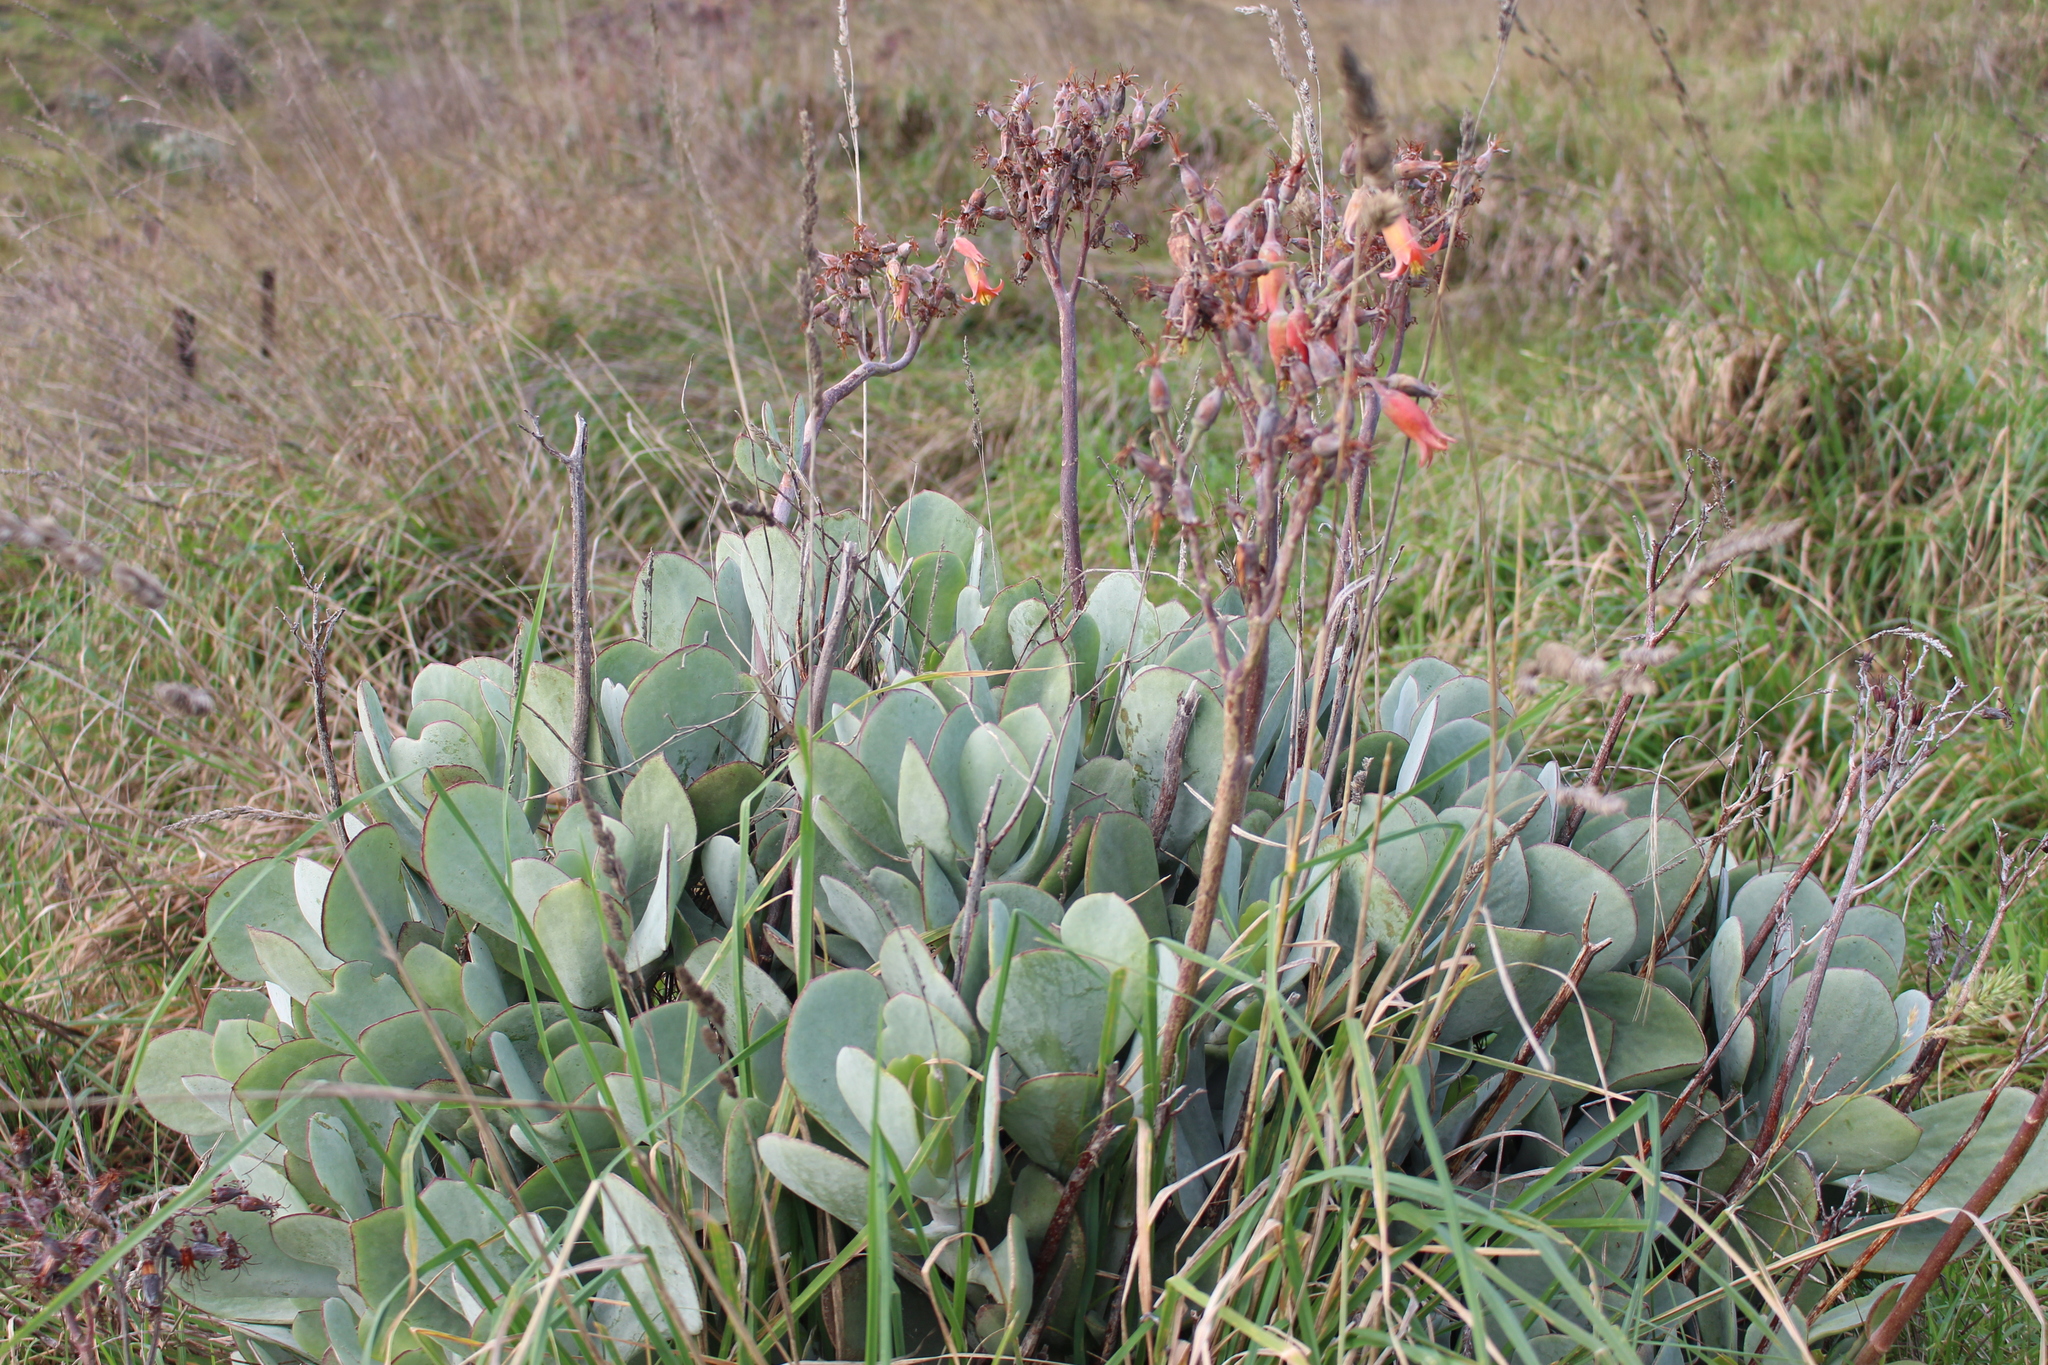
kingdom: Plantae
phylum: Tracheophyta
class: Magnoliopsida
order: Saxifragales
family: Crassulaceae
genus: Cotyledon
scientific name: Cotyledon orbiculata
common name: Pig's ear
